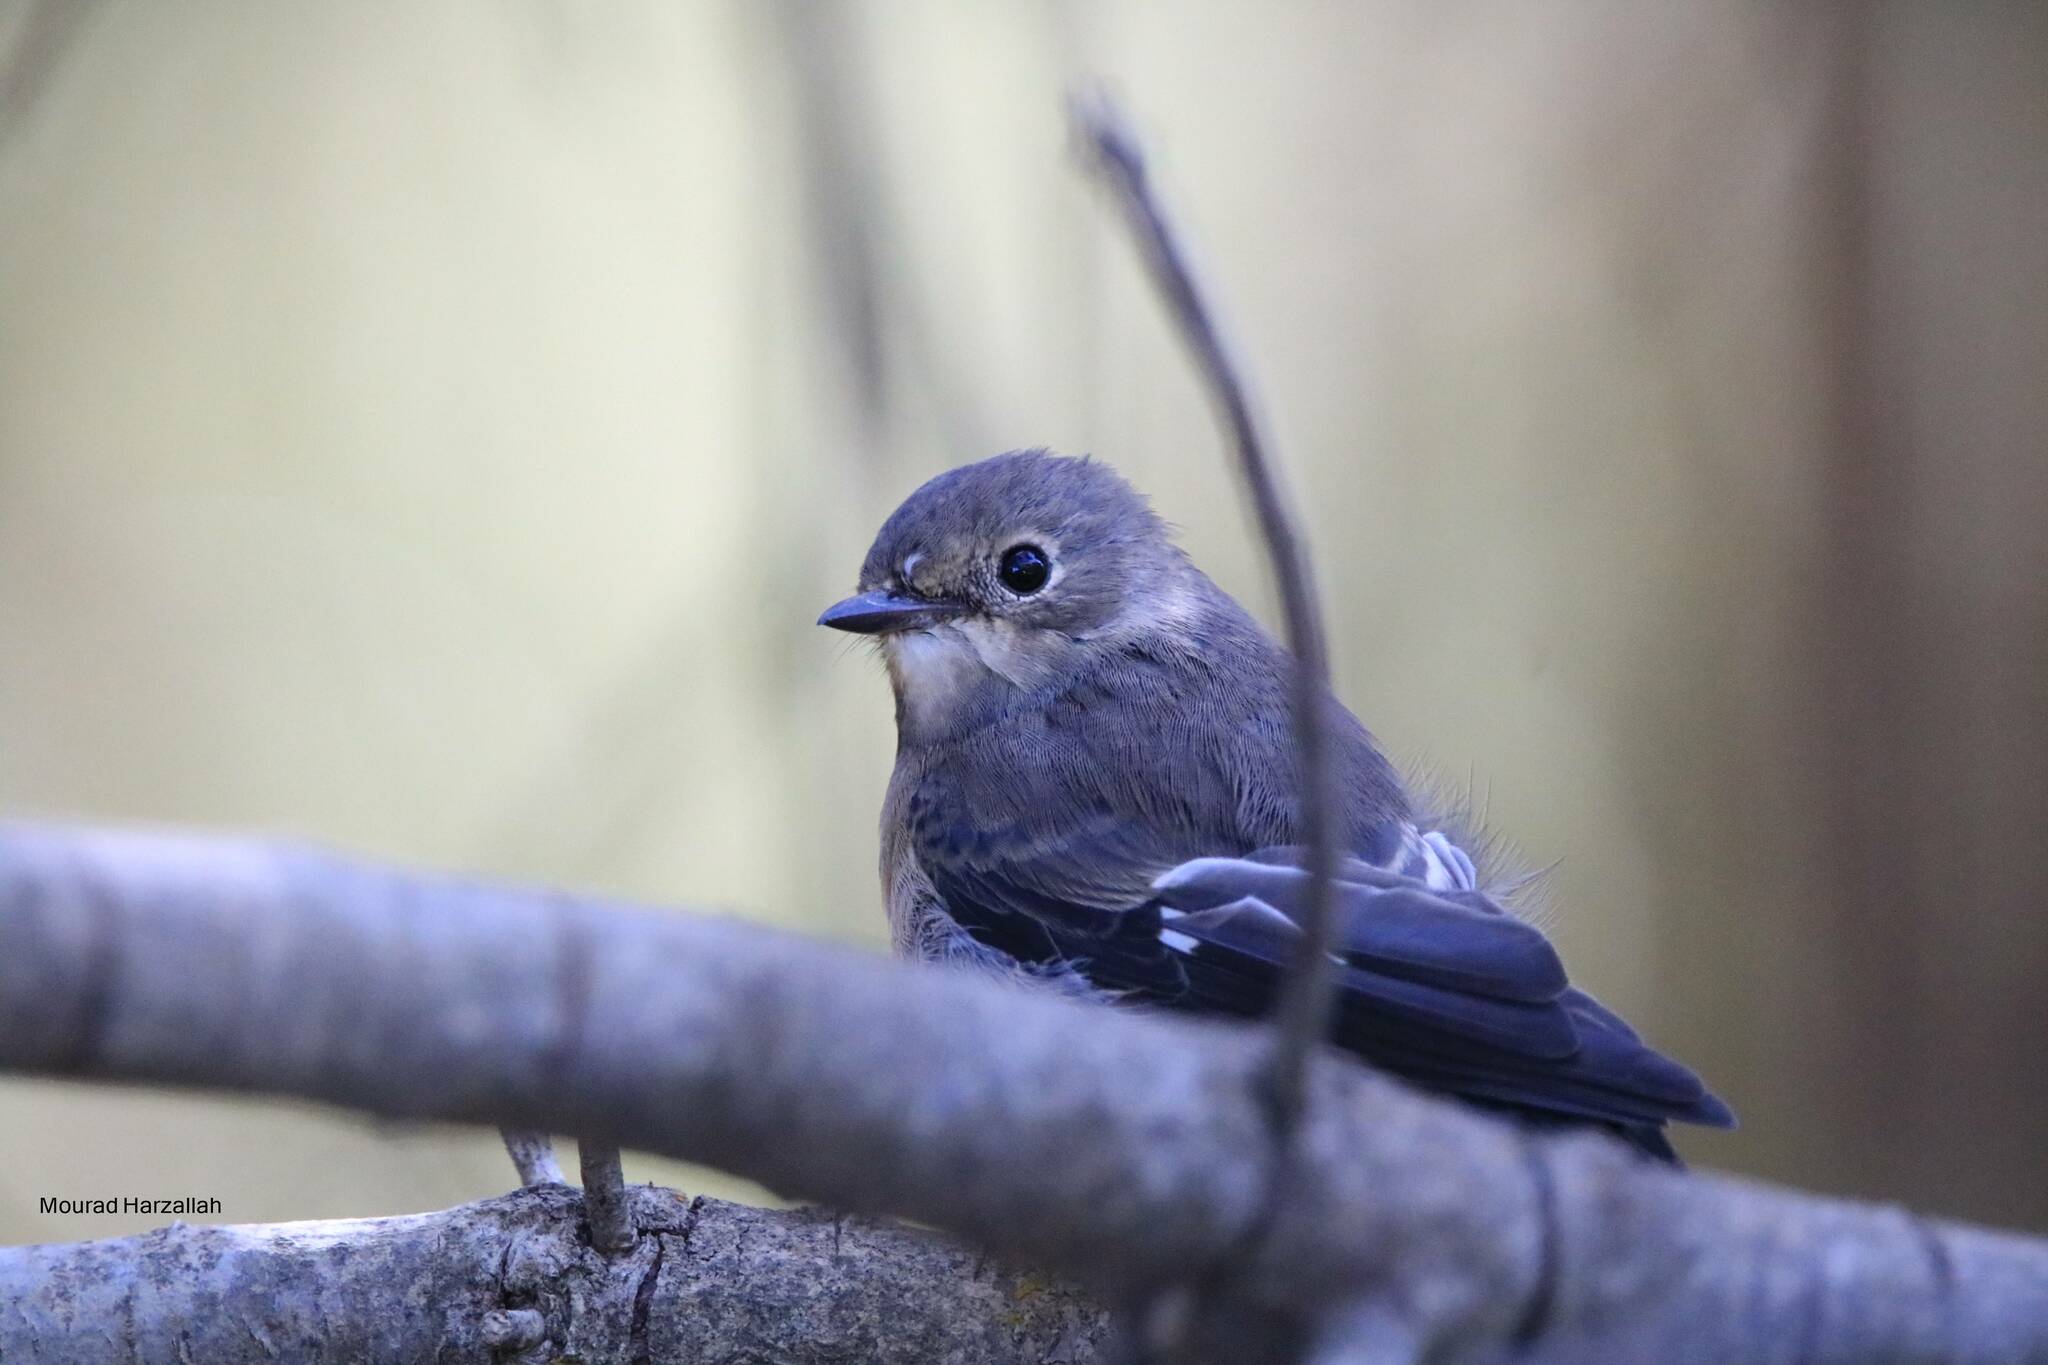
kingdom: Animalia
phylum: Chordata
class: Aves
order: Passeriformes
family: Muscicapidae
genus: Ficedula
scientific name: Ficedula speculigera
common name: Atlas pied flycatcher
